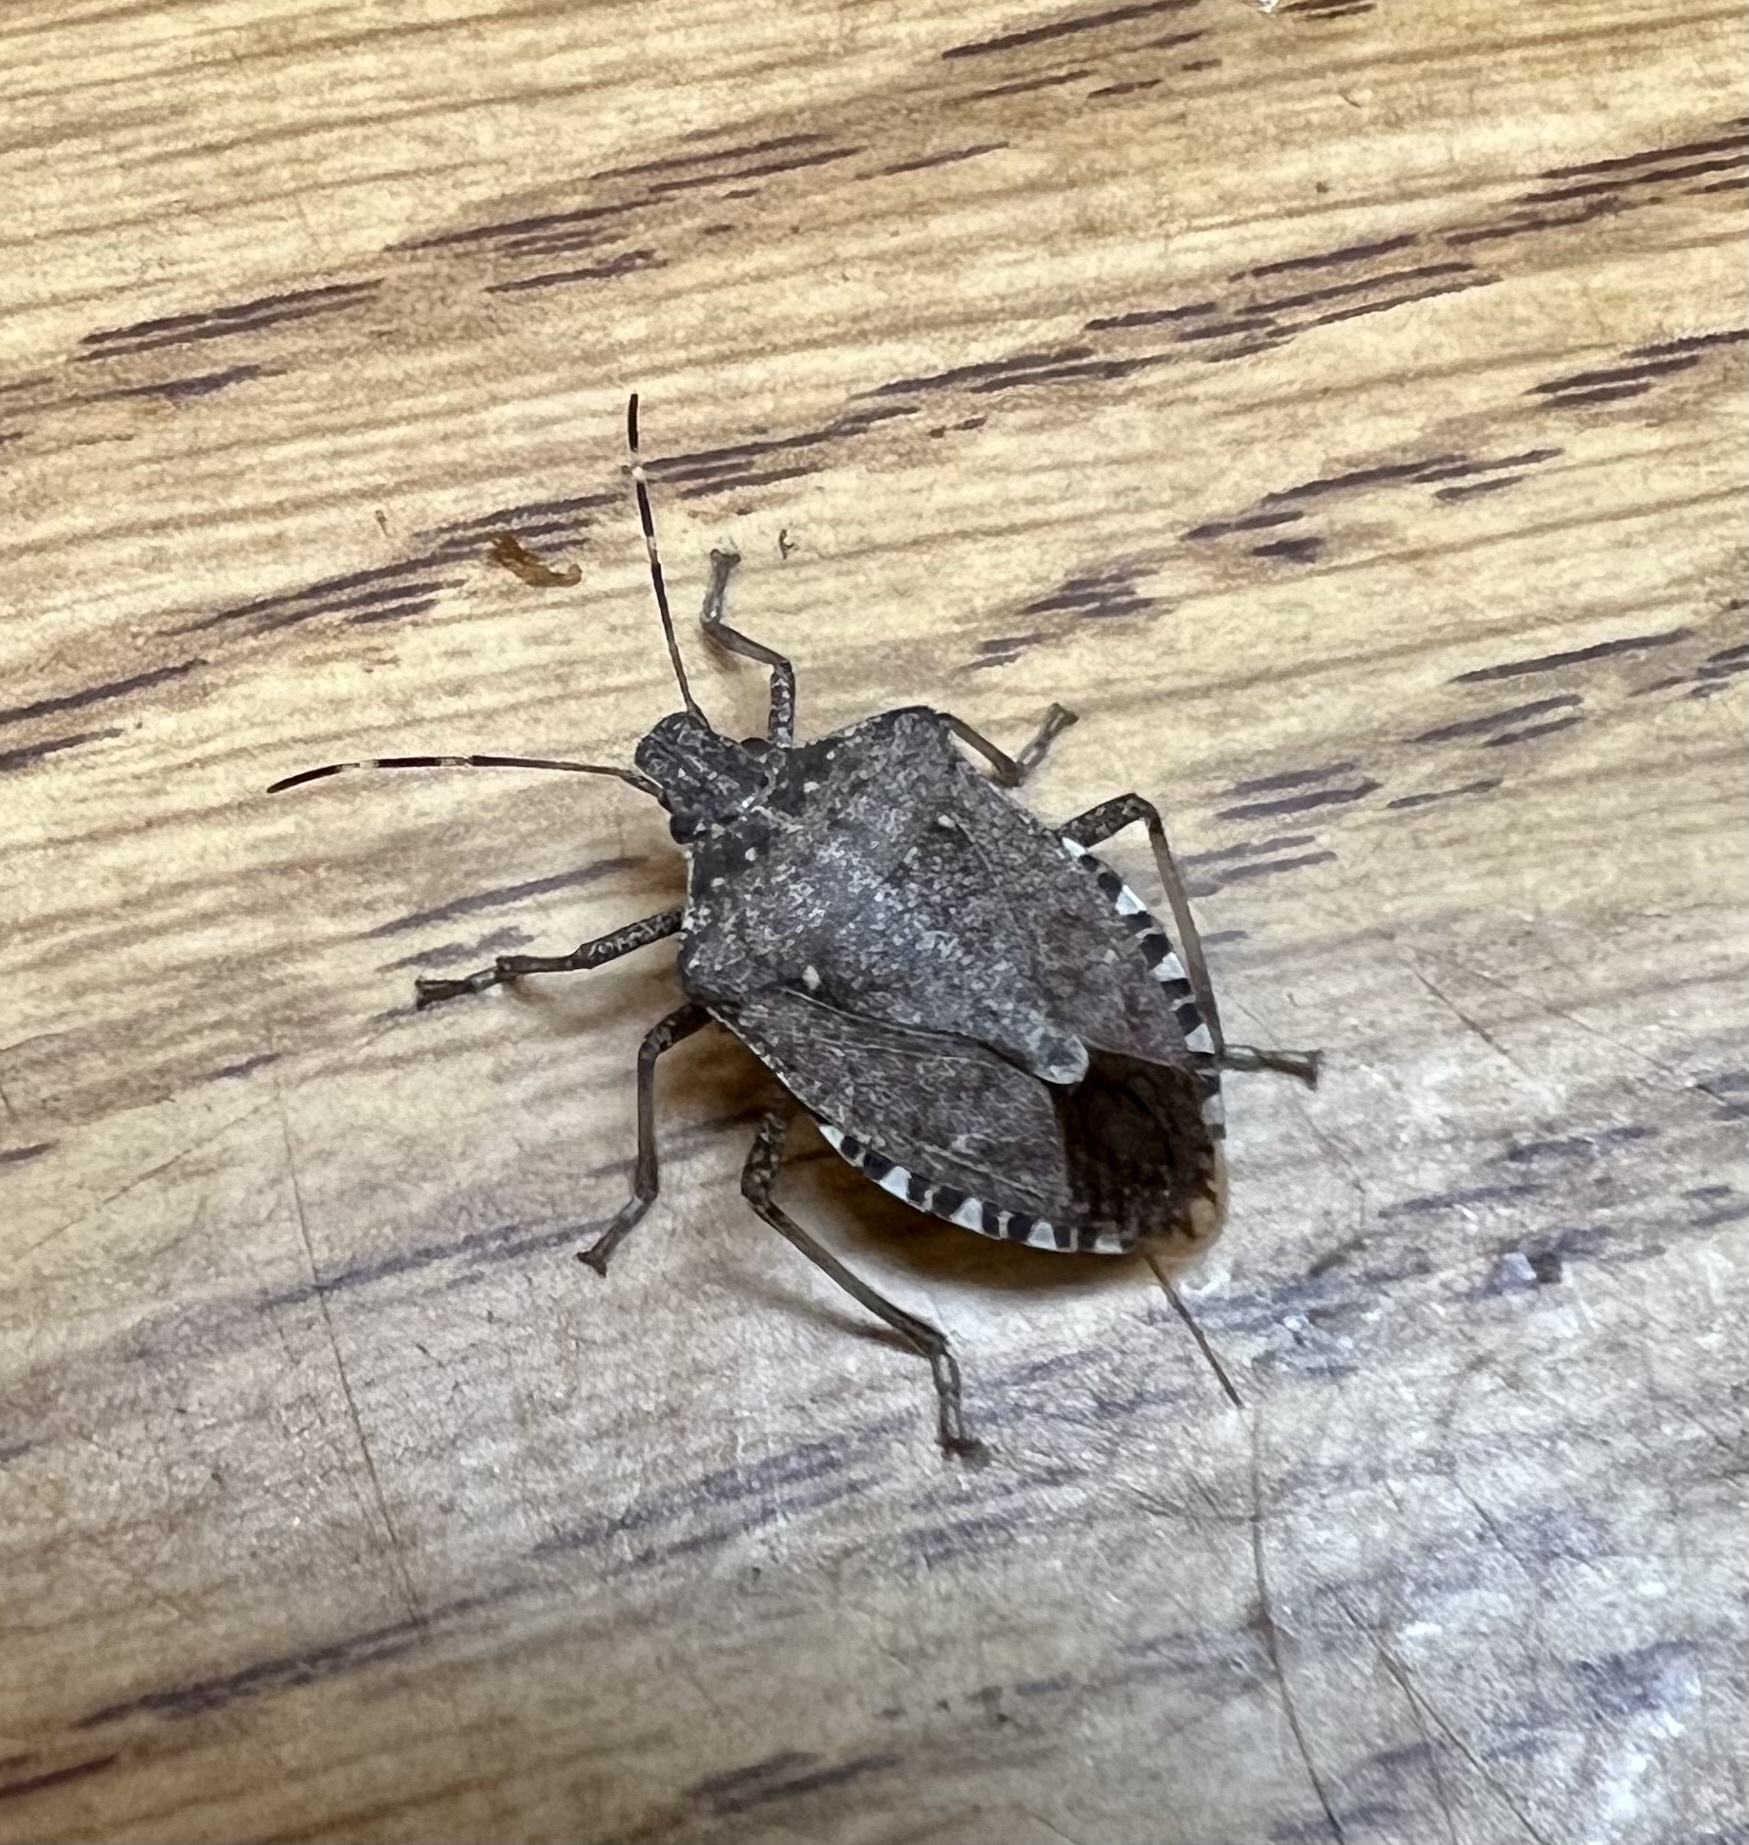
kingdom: Animalia
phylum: Arthropoda
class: Insecta
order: Hemiptera
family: Pentatomidae
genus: Halyomorpha
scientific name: Halyomorpha halys
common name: Brown marmorated stink bug
